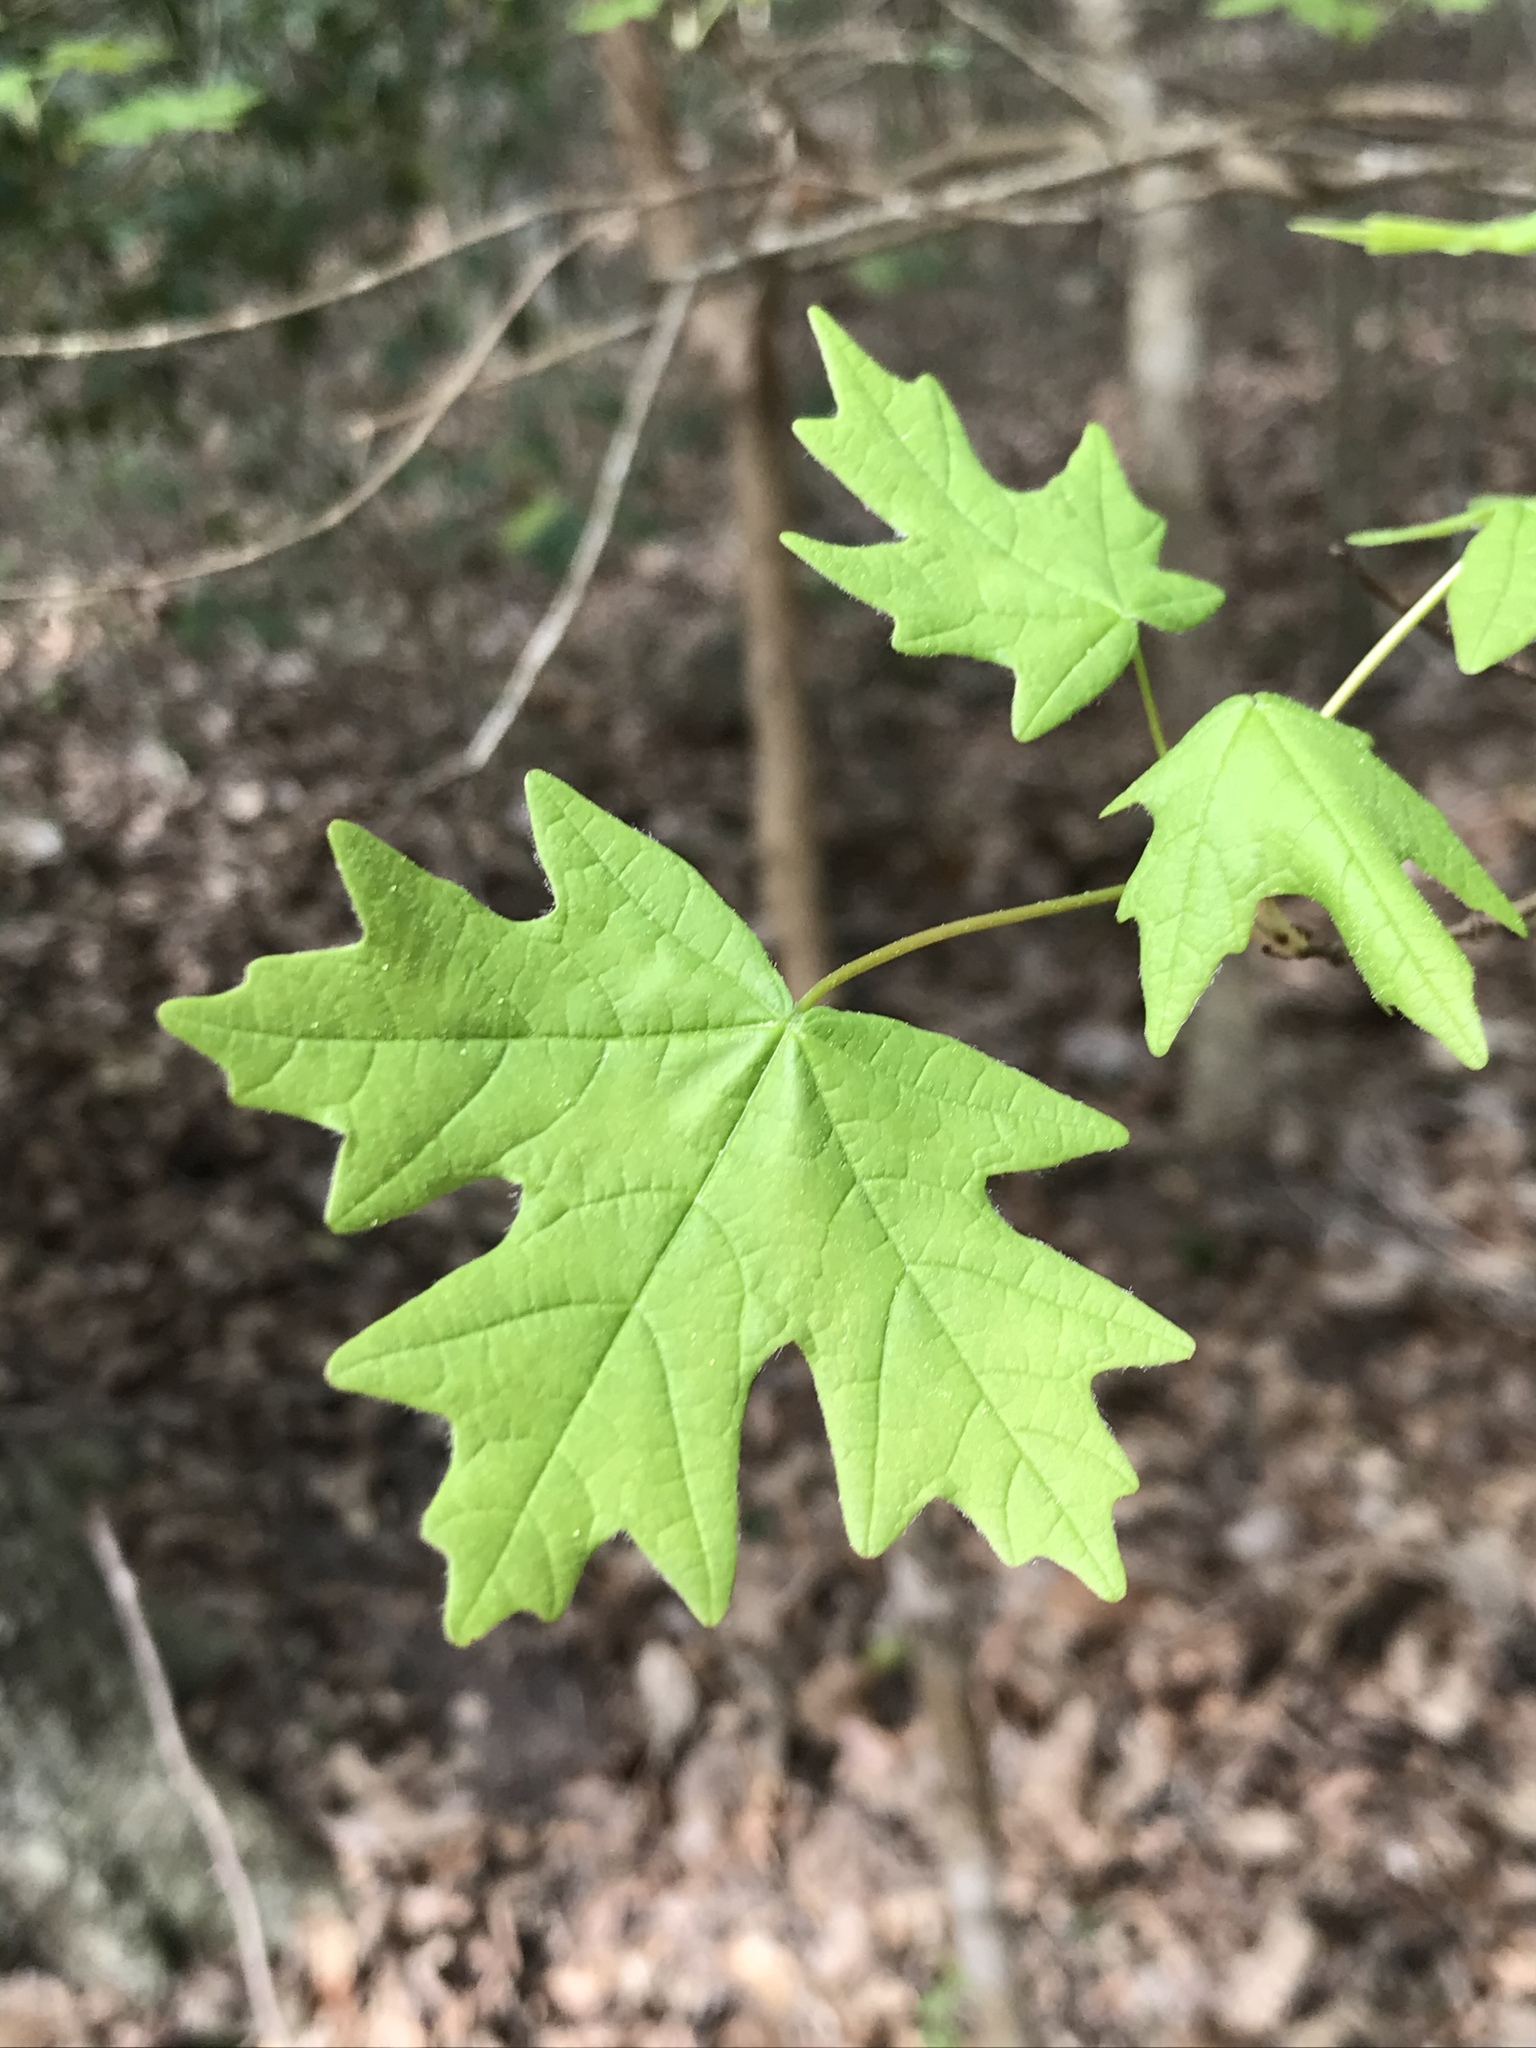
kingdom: Plantae
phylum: Tracheophyta
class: Magnoliopsida
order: Sapindales
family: Sapindaceae
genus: Acer
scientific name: Acer floridanum
